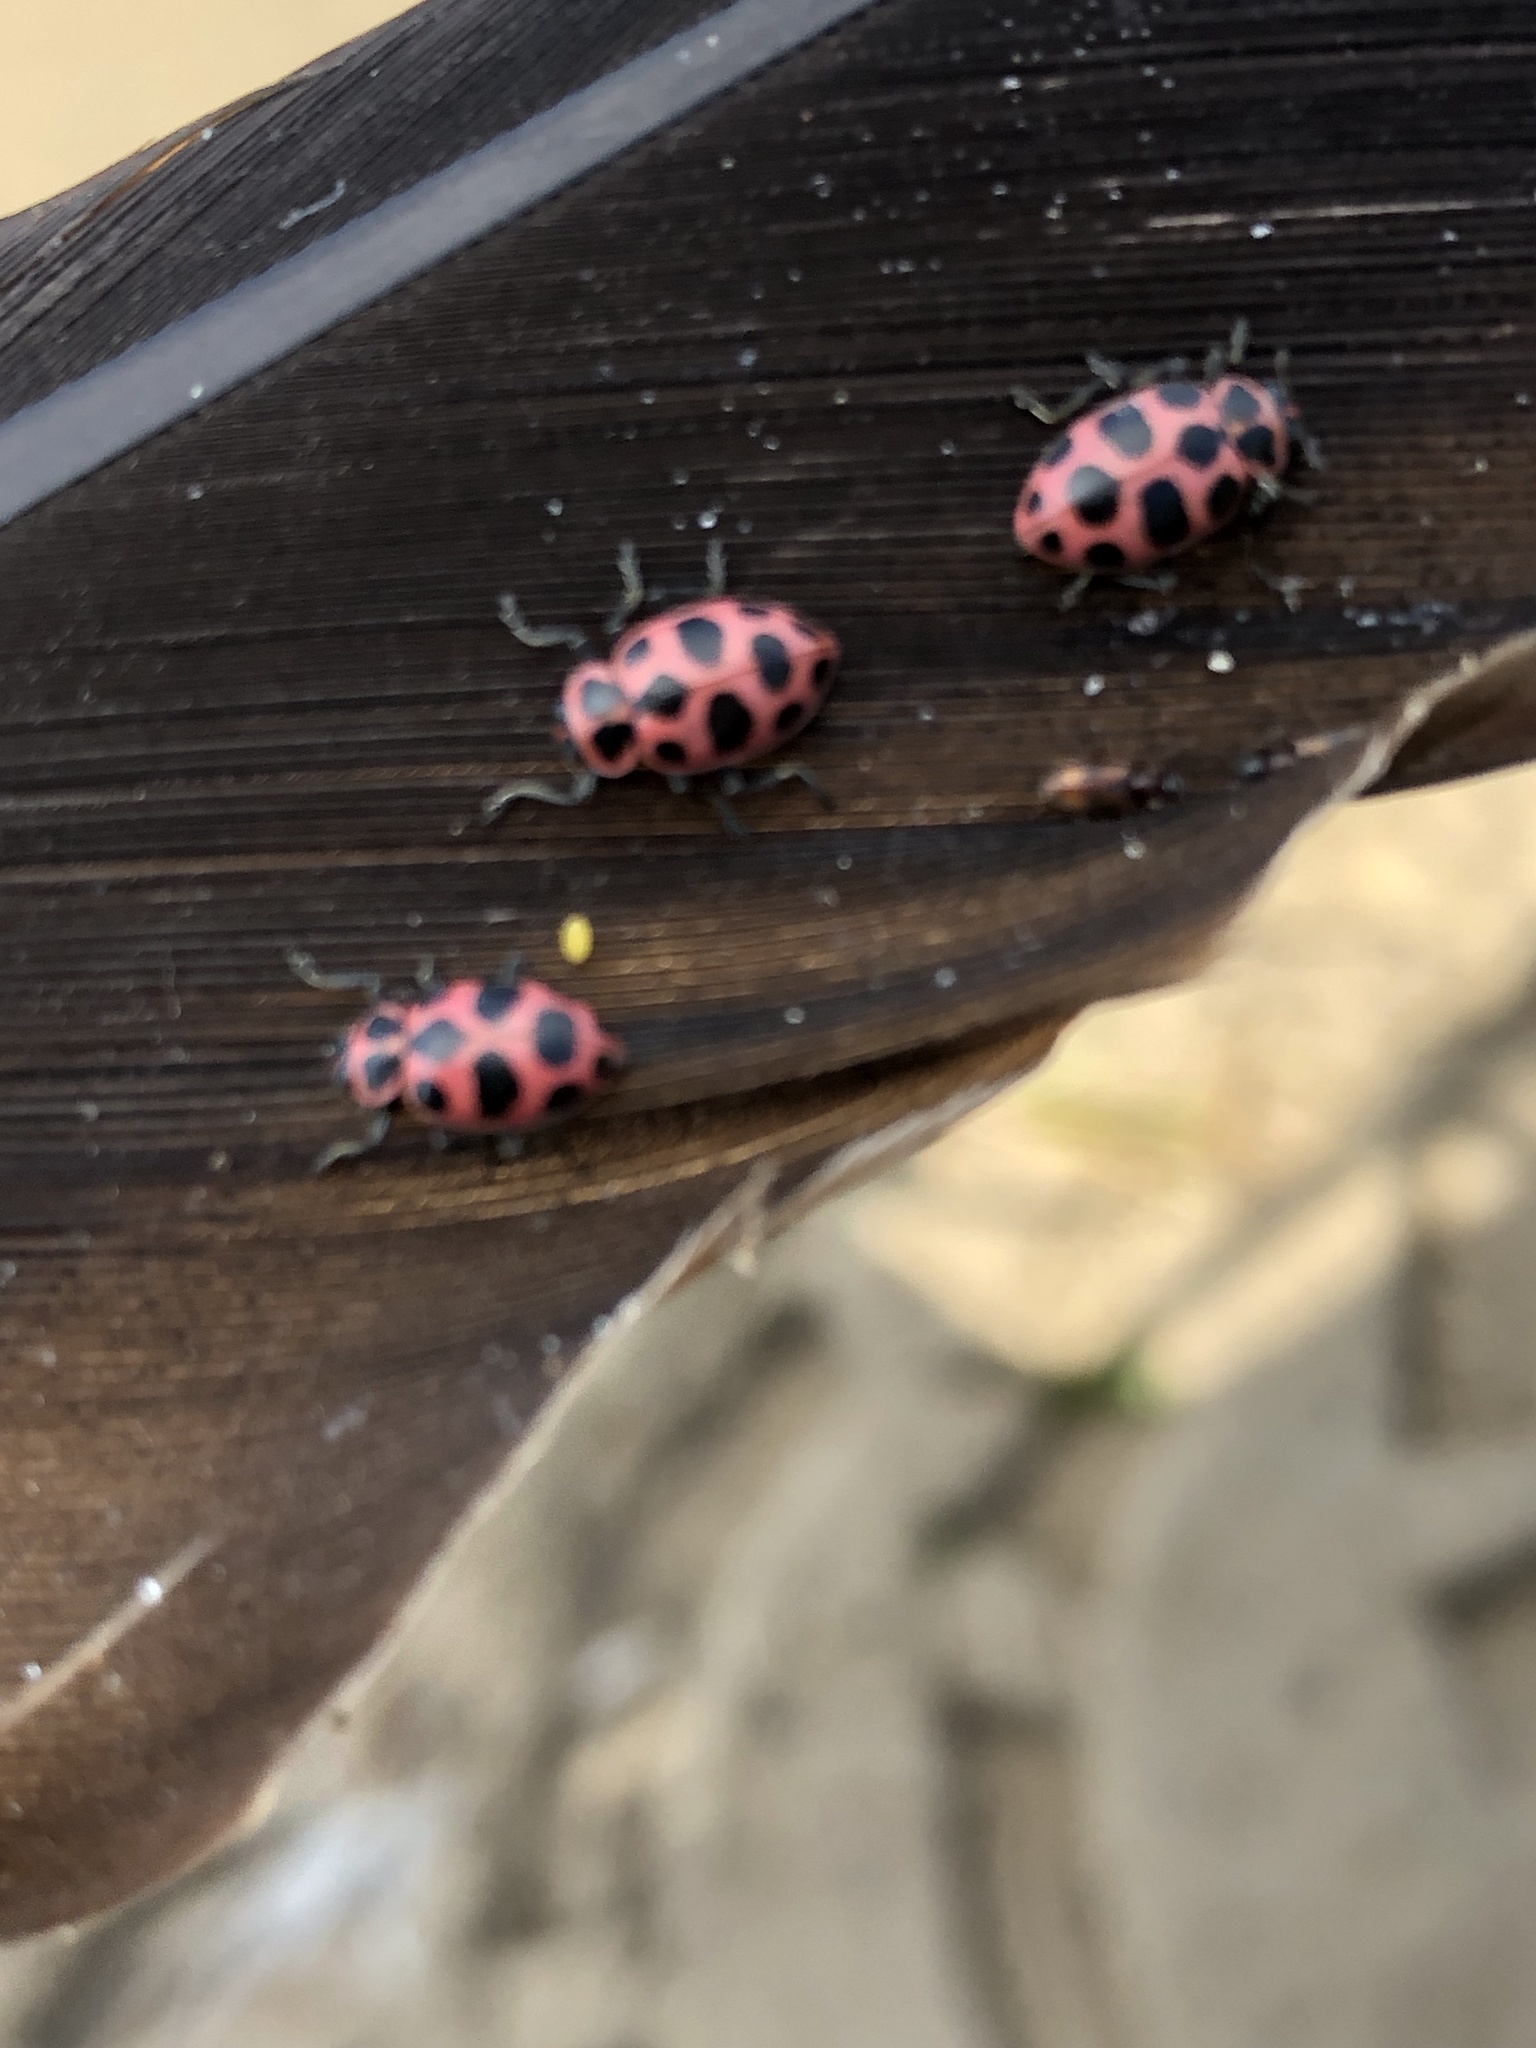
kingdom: Animalia
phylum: Arthropoda
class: Insecta
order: Coleoptera
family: Coccinellidae
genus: Coleomegilla
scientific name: Coleomegilla maculata
